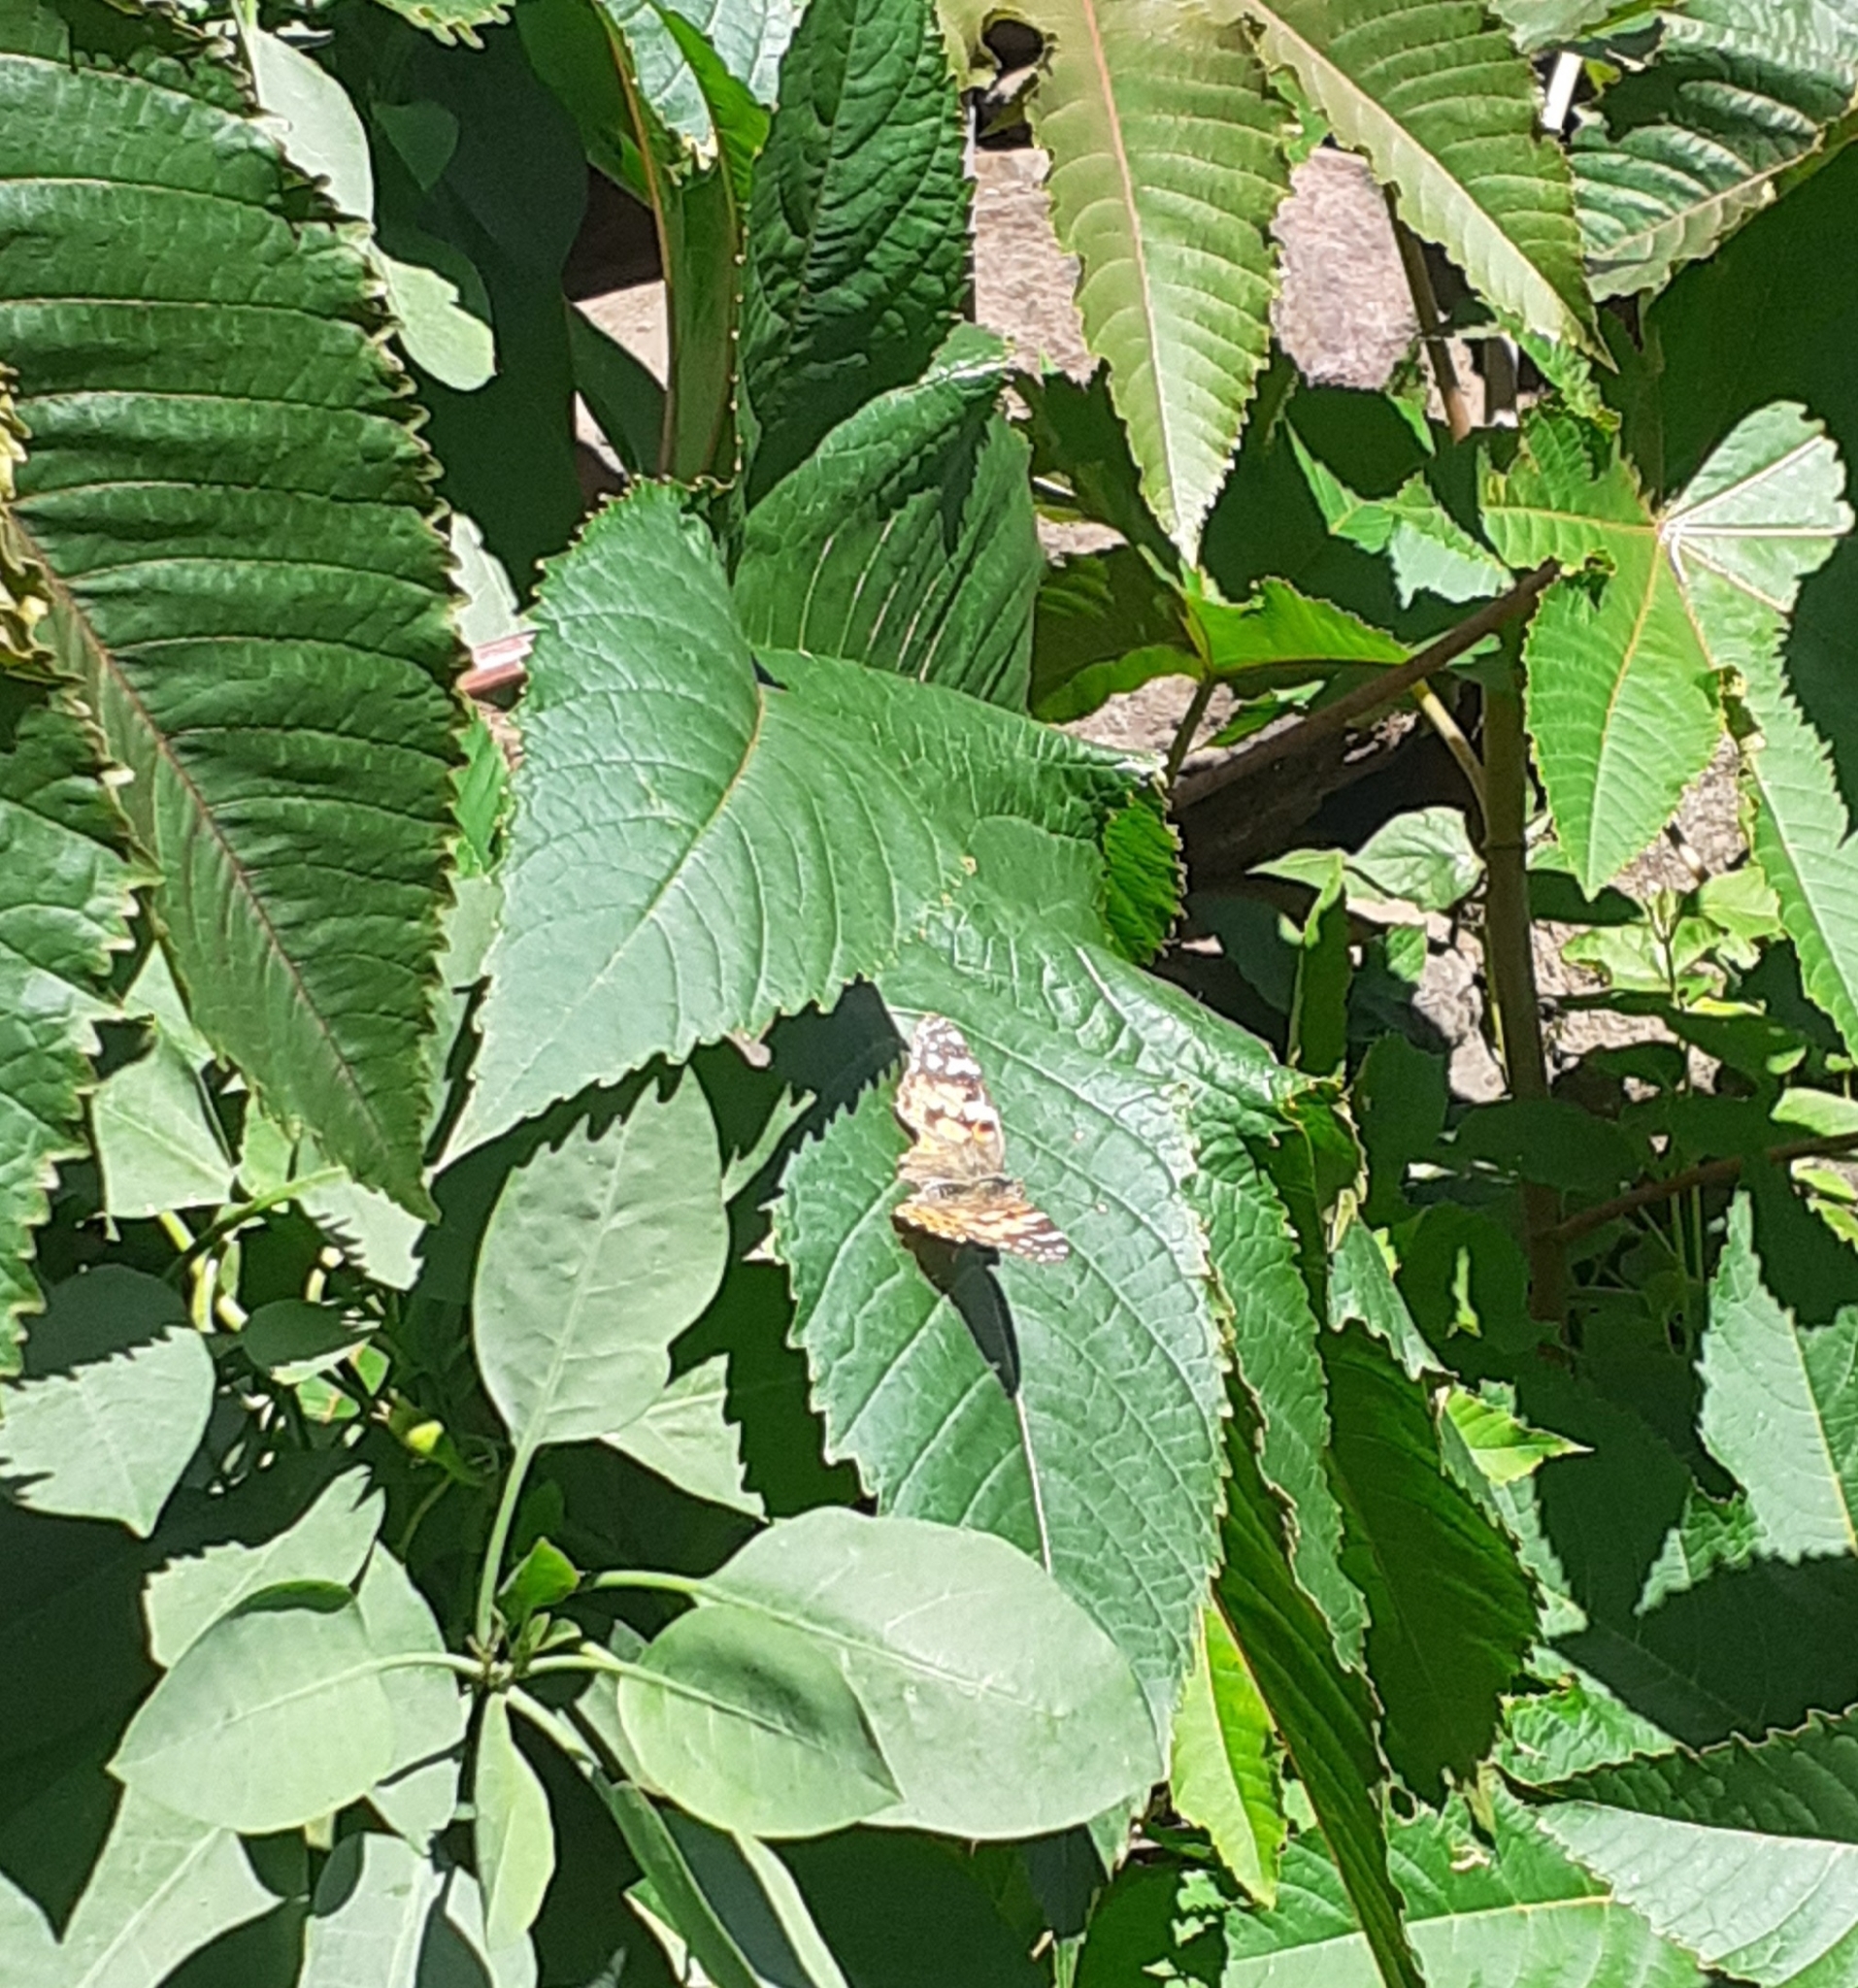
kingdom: Animalia
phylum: Arthropoda
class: Insecta
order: Lepidoptera
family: Nymphalidae
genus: Vanessa
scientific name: Vanessa cardui
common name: Painted lady
